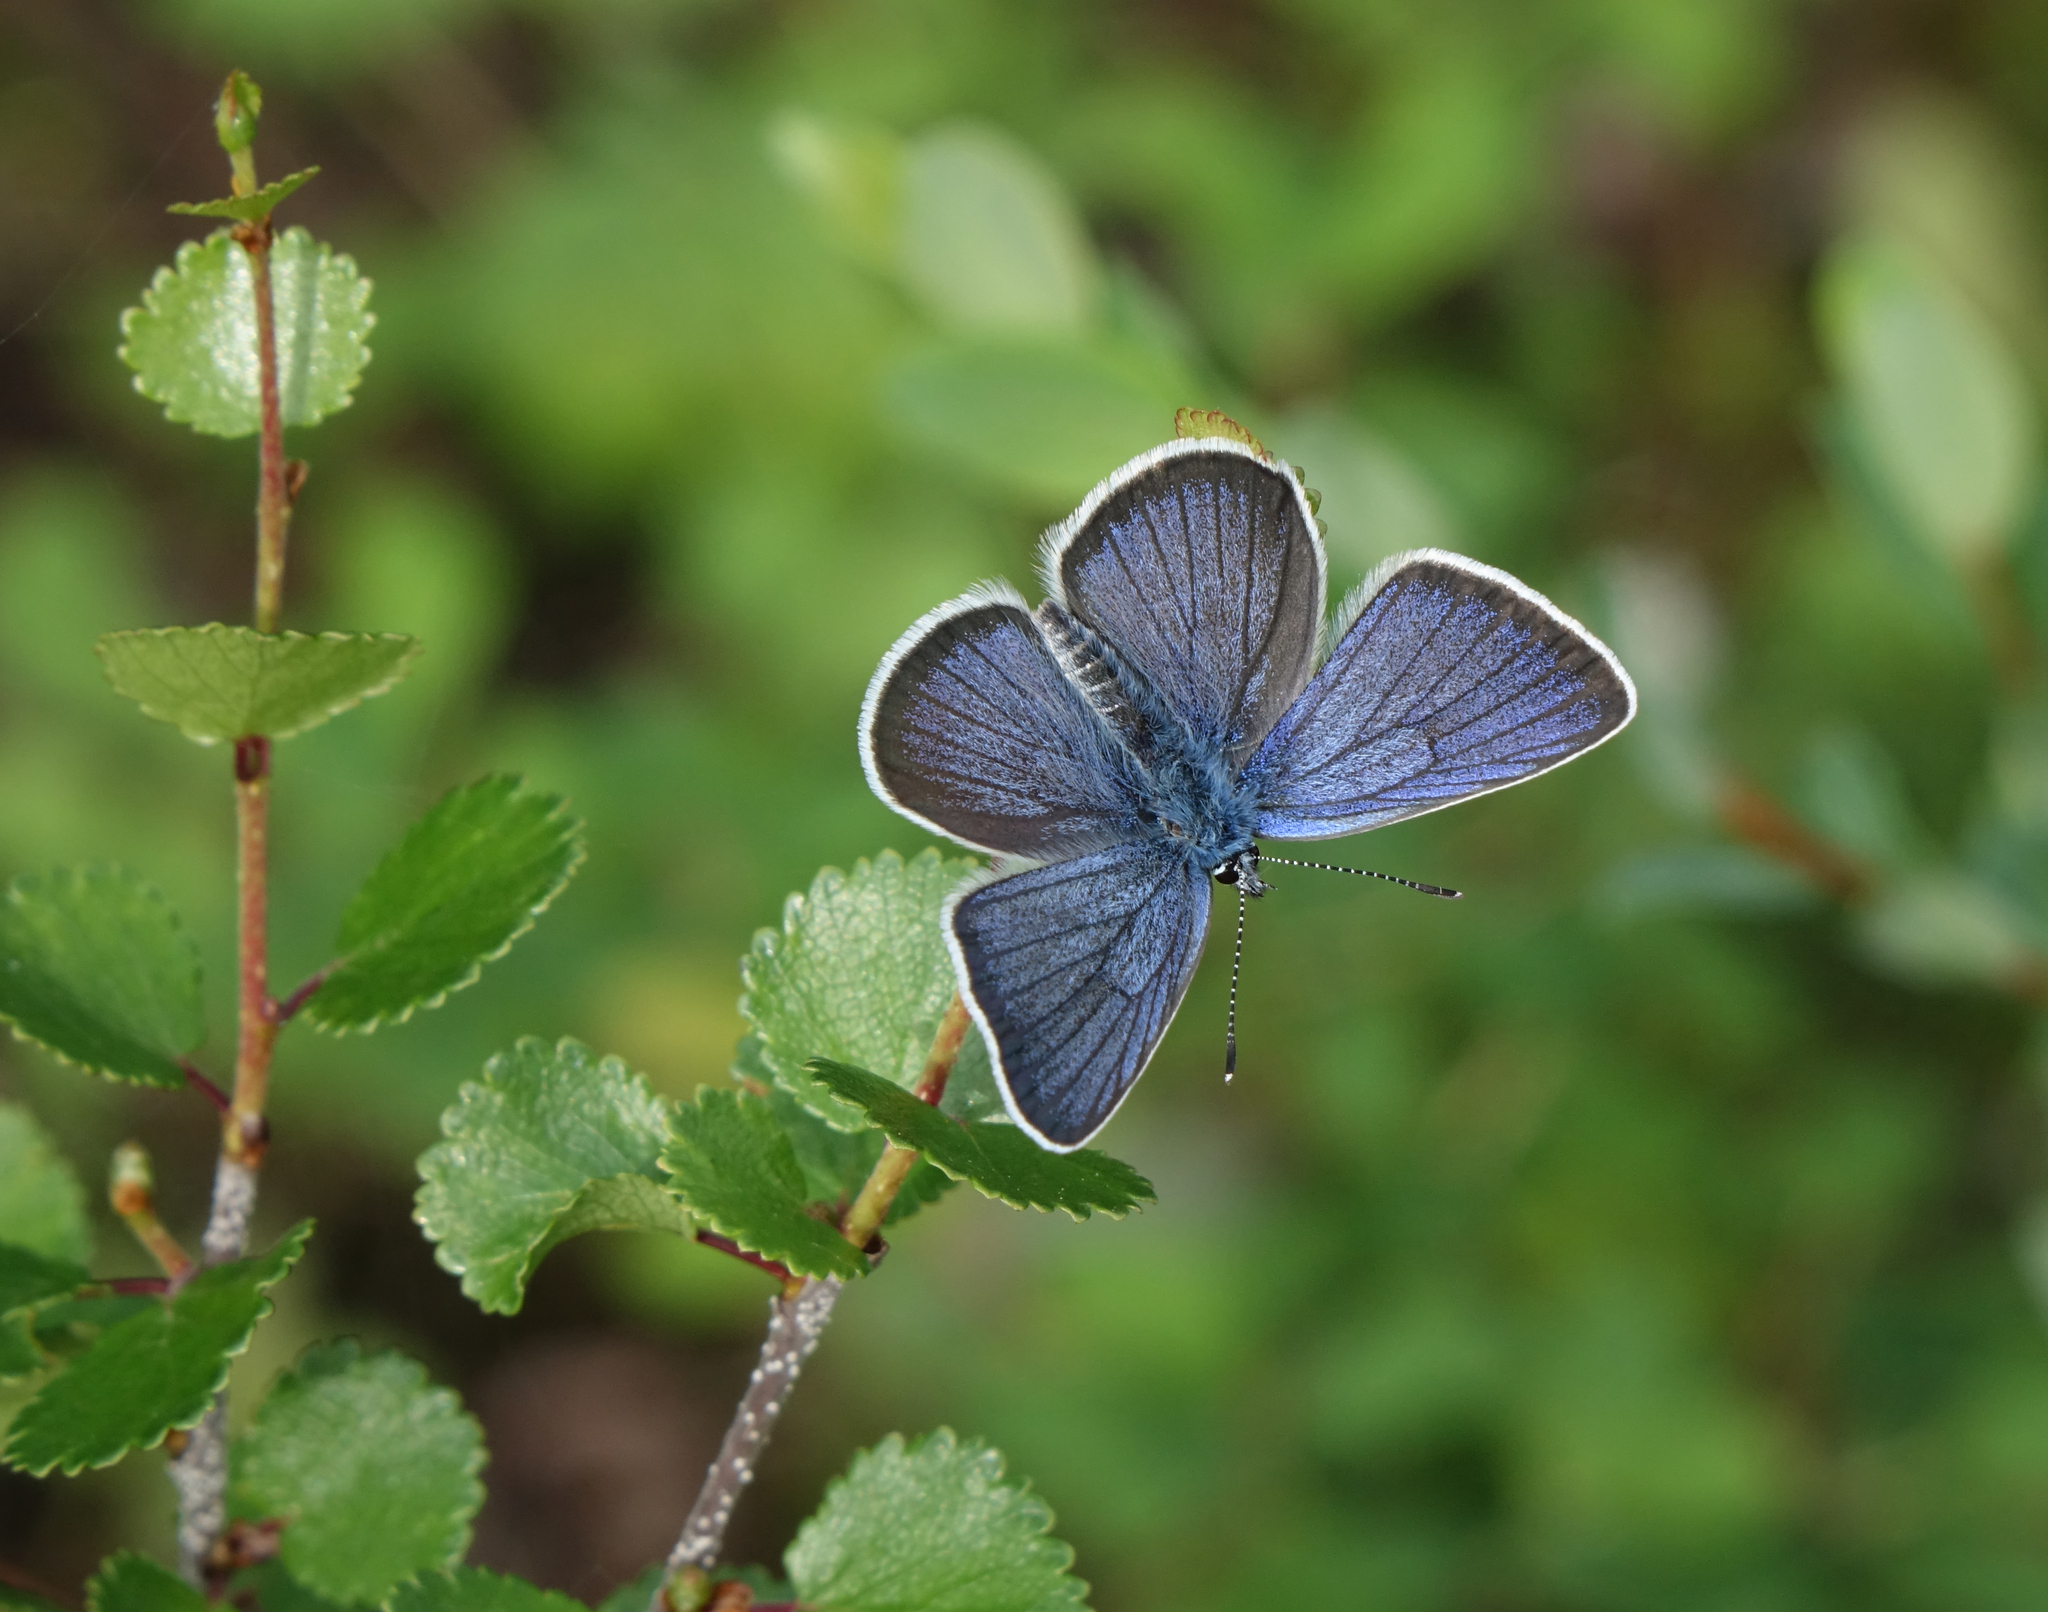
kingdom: Animalia
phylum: Arthropoda
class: Insecta
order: Lepidoptera
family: Lycaenidae
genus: Cyaniris
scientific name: Cyaniris semiargus
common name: Mazarine blue
